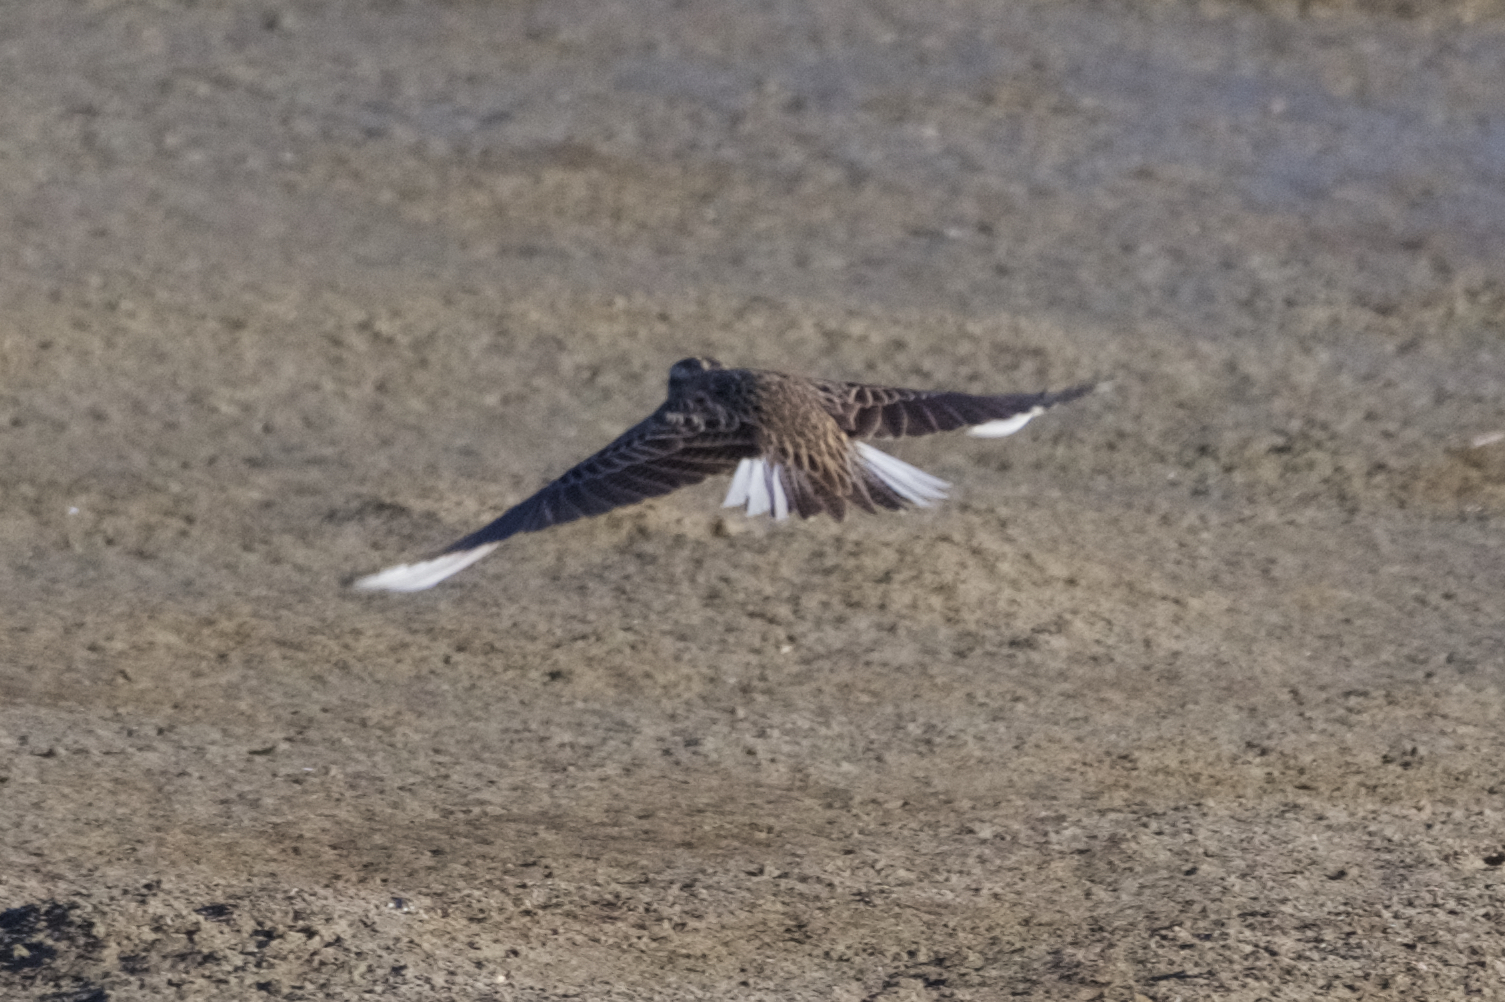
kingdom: Animalia
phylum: Chordata
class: Aves
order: Passeriformes
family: Icteridae
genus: Sturnella
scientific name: Sturnella neglecta
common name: Western meadowlark
